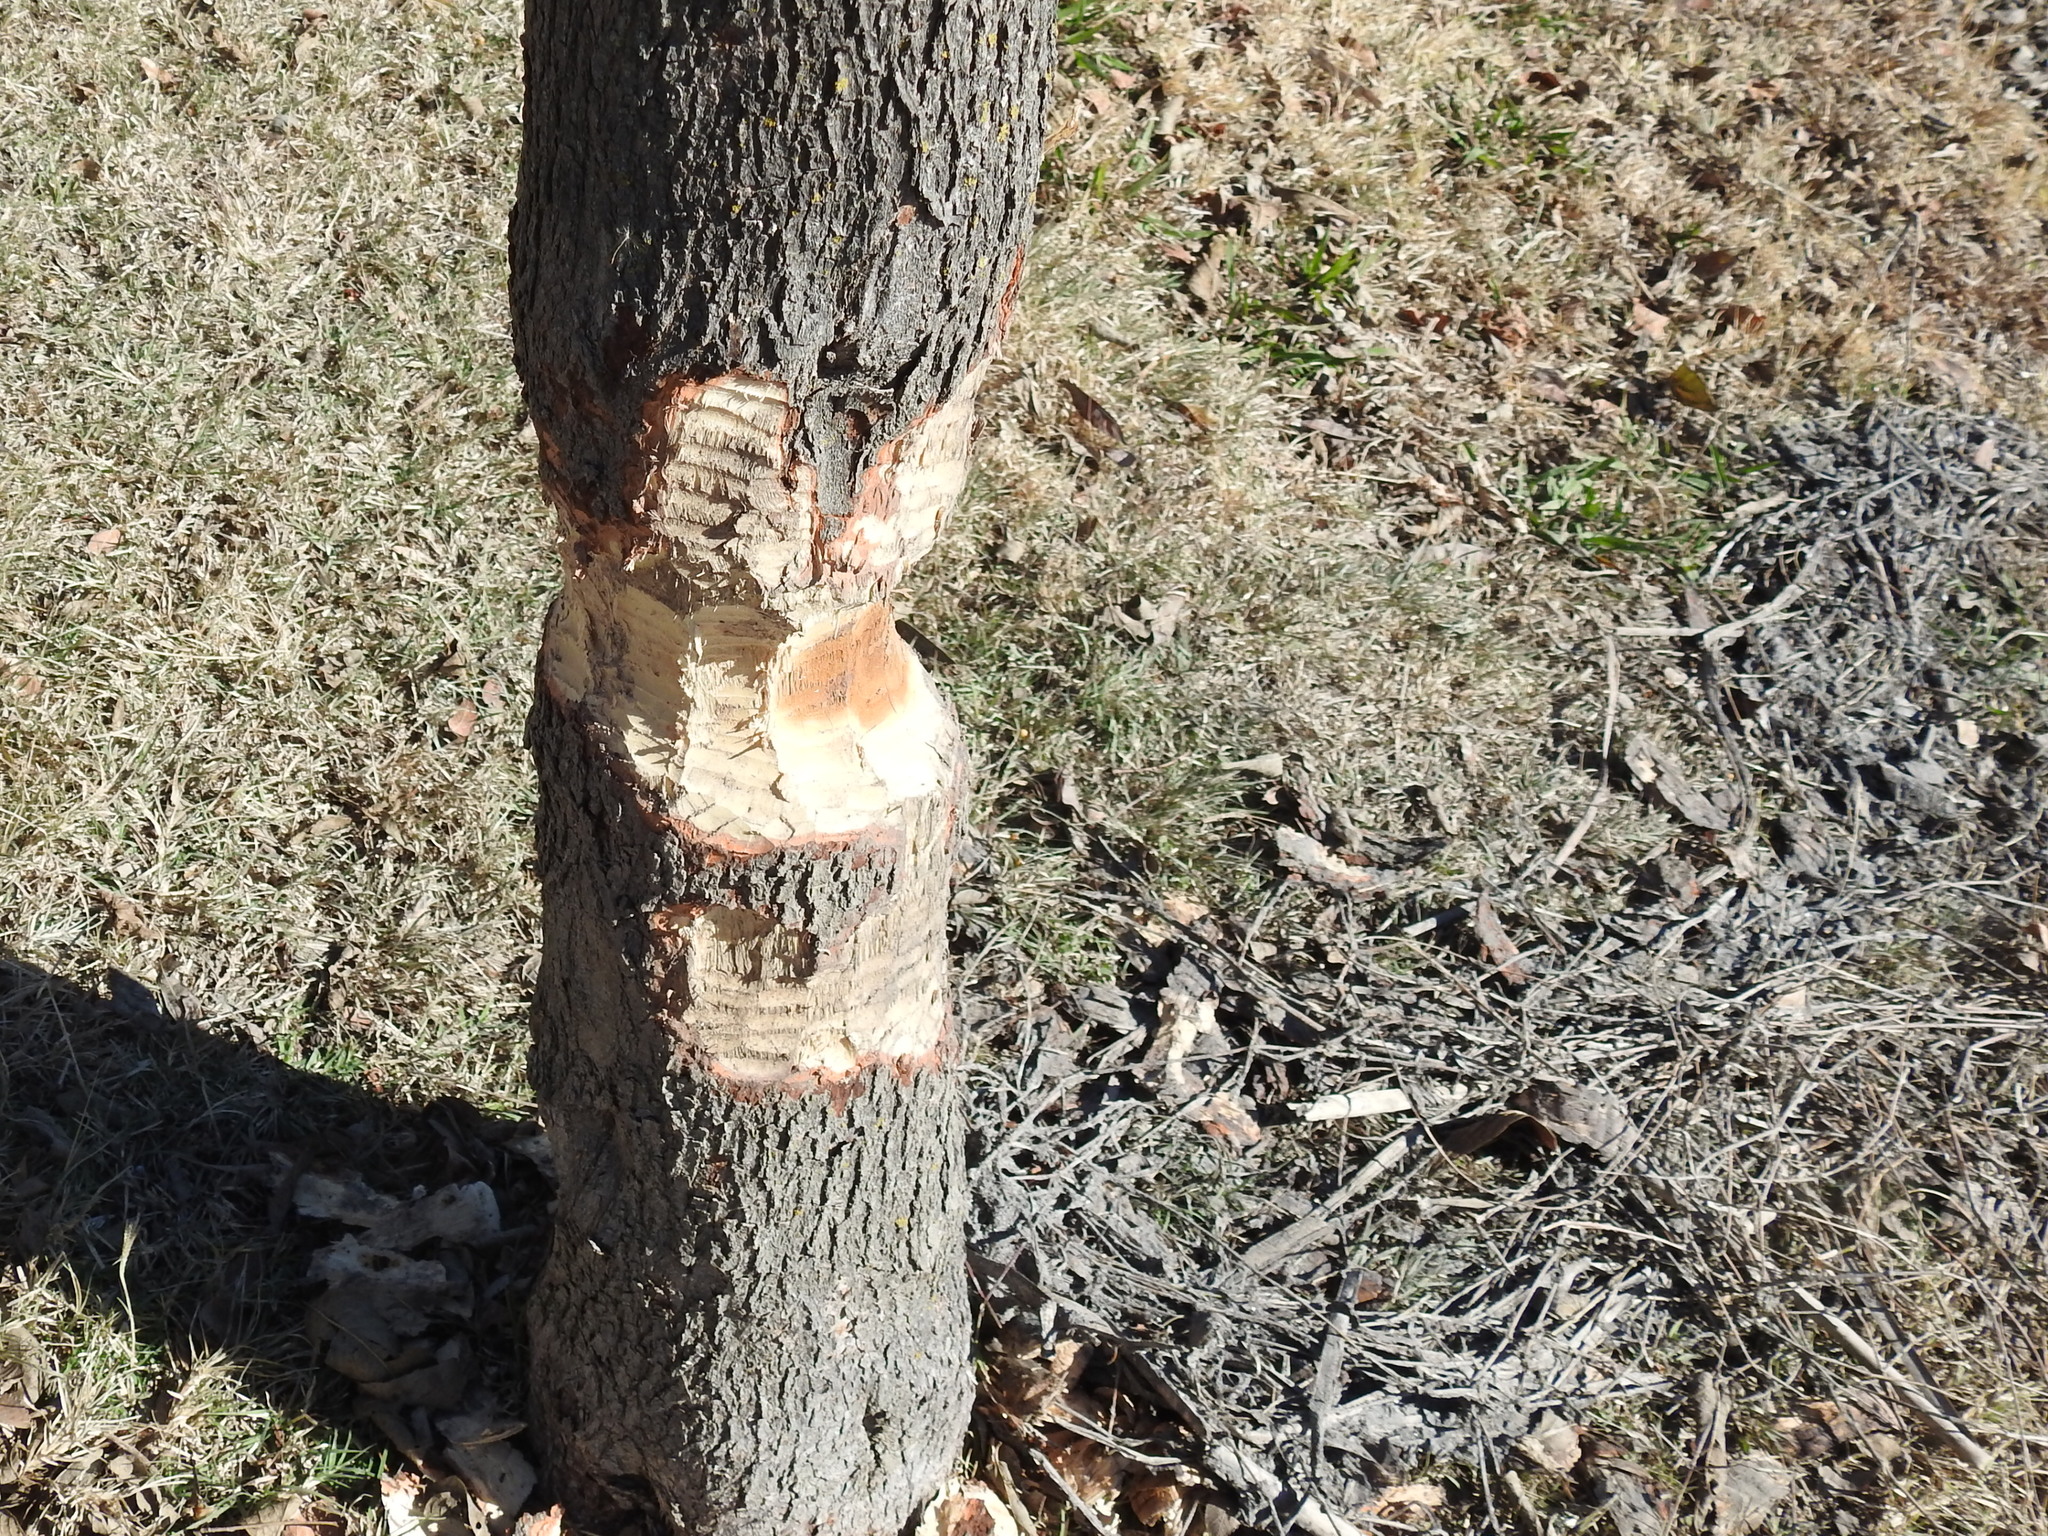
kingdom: Animalia
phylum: Chordata
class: Mammalia
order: Rodentia
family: Castoridae
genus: Castor
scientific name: Castor canadensis
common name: American beaver
